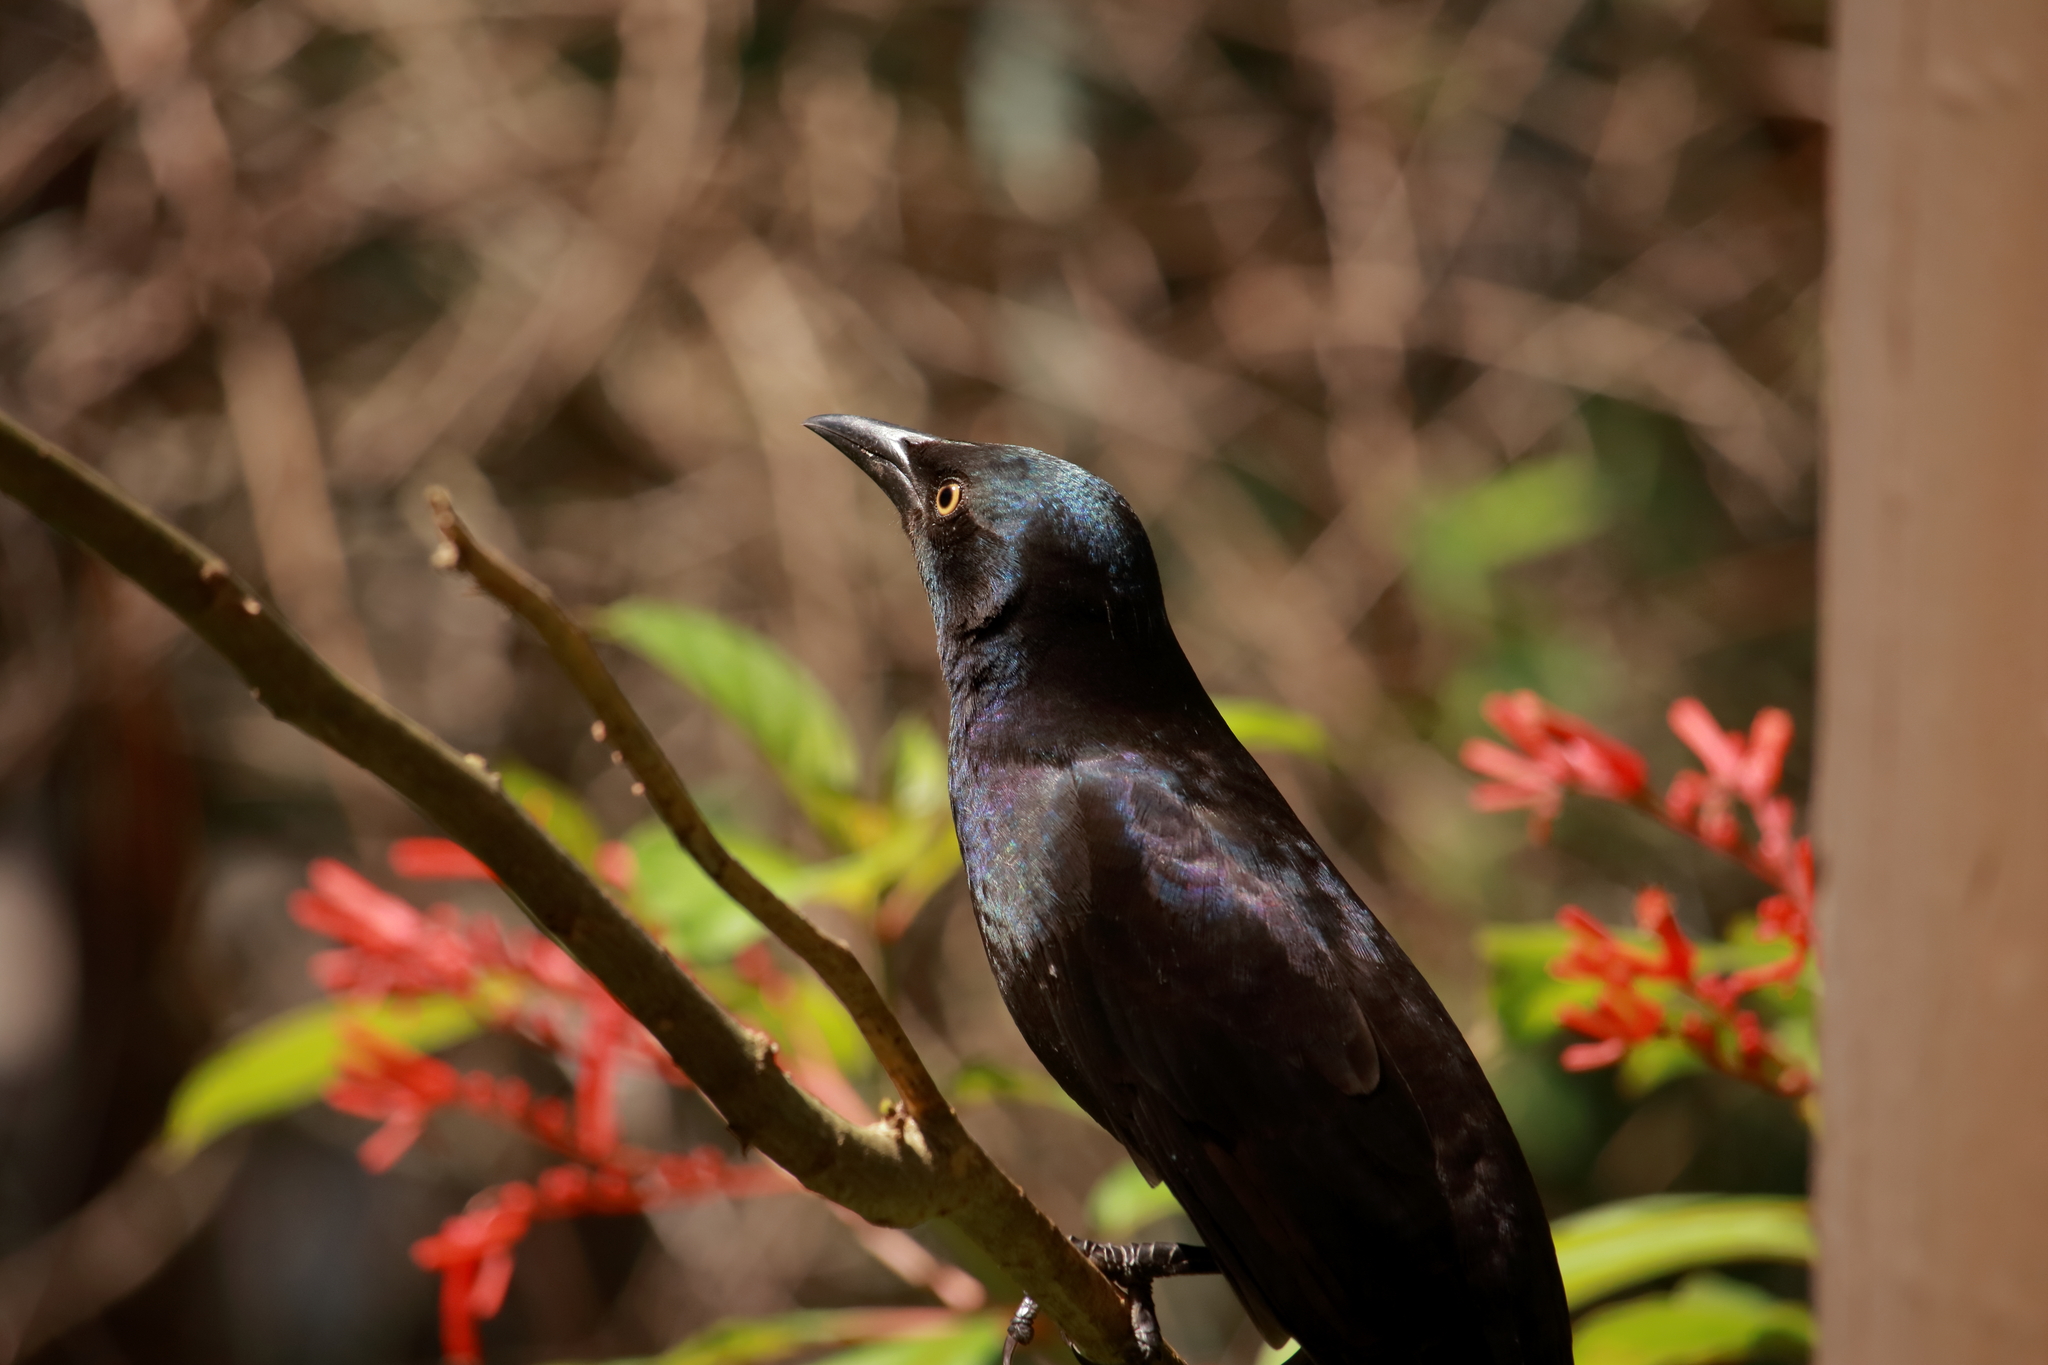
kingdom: Animalia
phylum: Chordata
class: Aves
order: Passeriformes
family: Icteridae
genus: Quiscalus
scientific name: Quiscalus quiscula
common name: Common grackle
